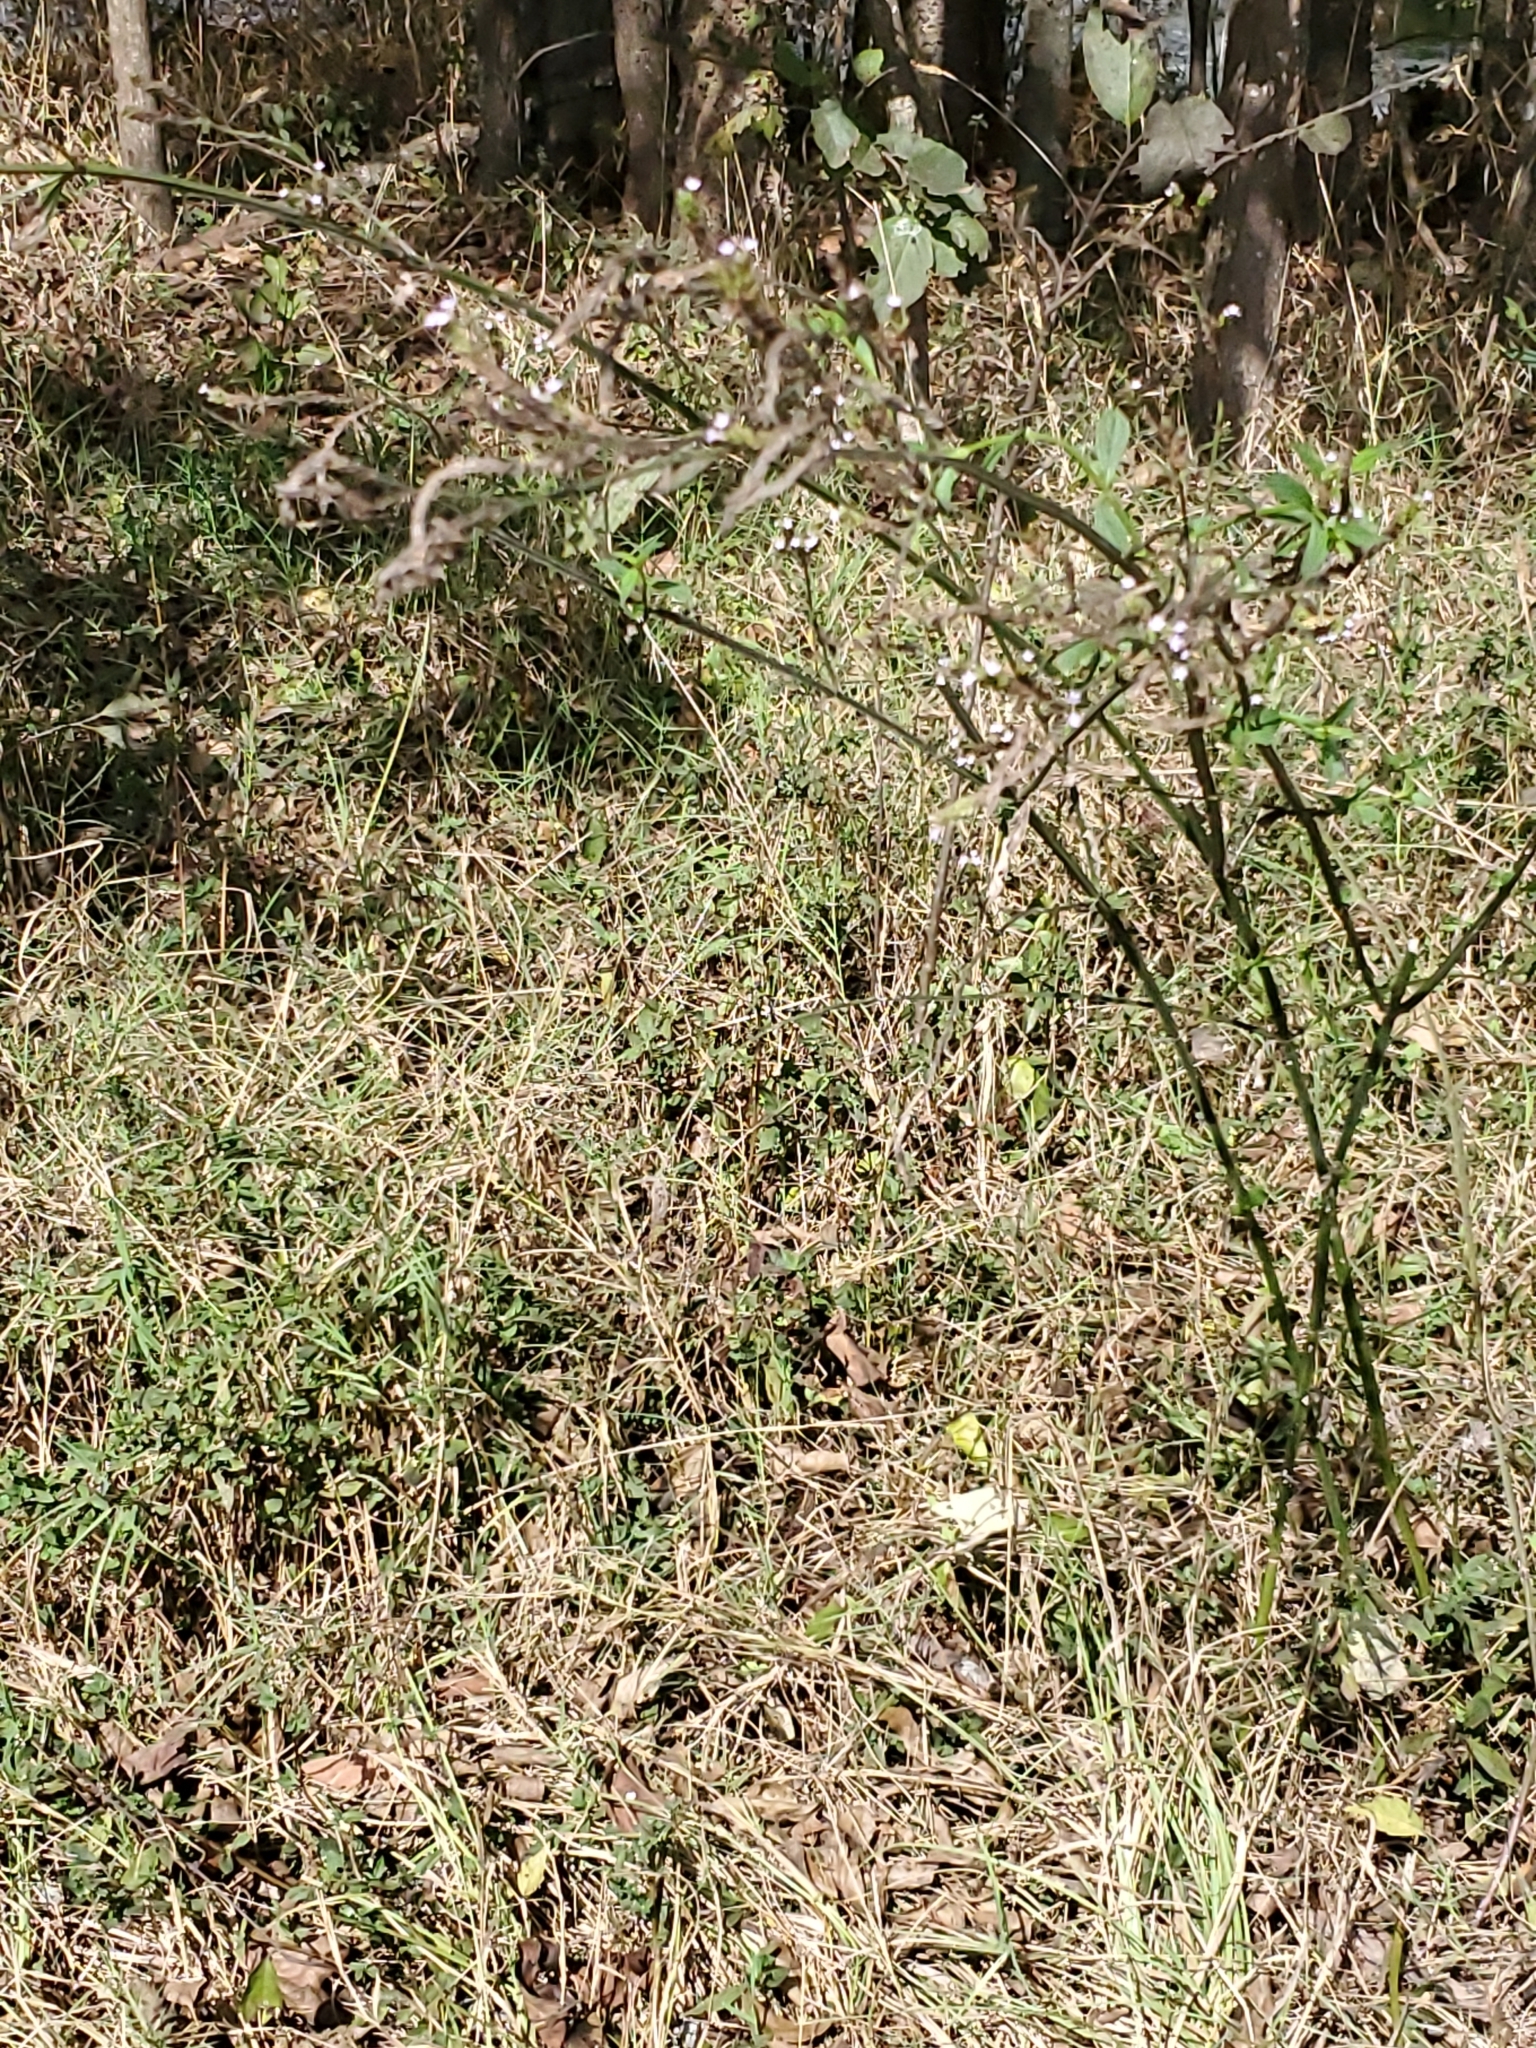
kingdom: Plantae
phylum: Tracheophyta
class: Magnoliopsida
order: Lamiales
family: Verbenaceae
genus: Verbena
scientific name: Verbena brasiliensis
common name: Brazilian vervain
